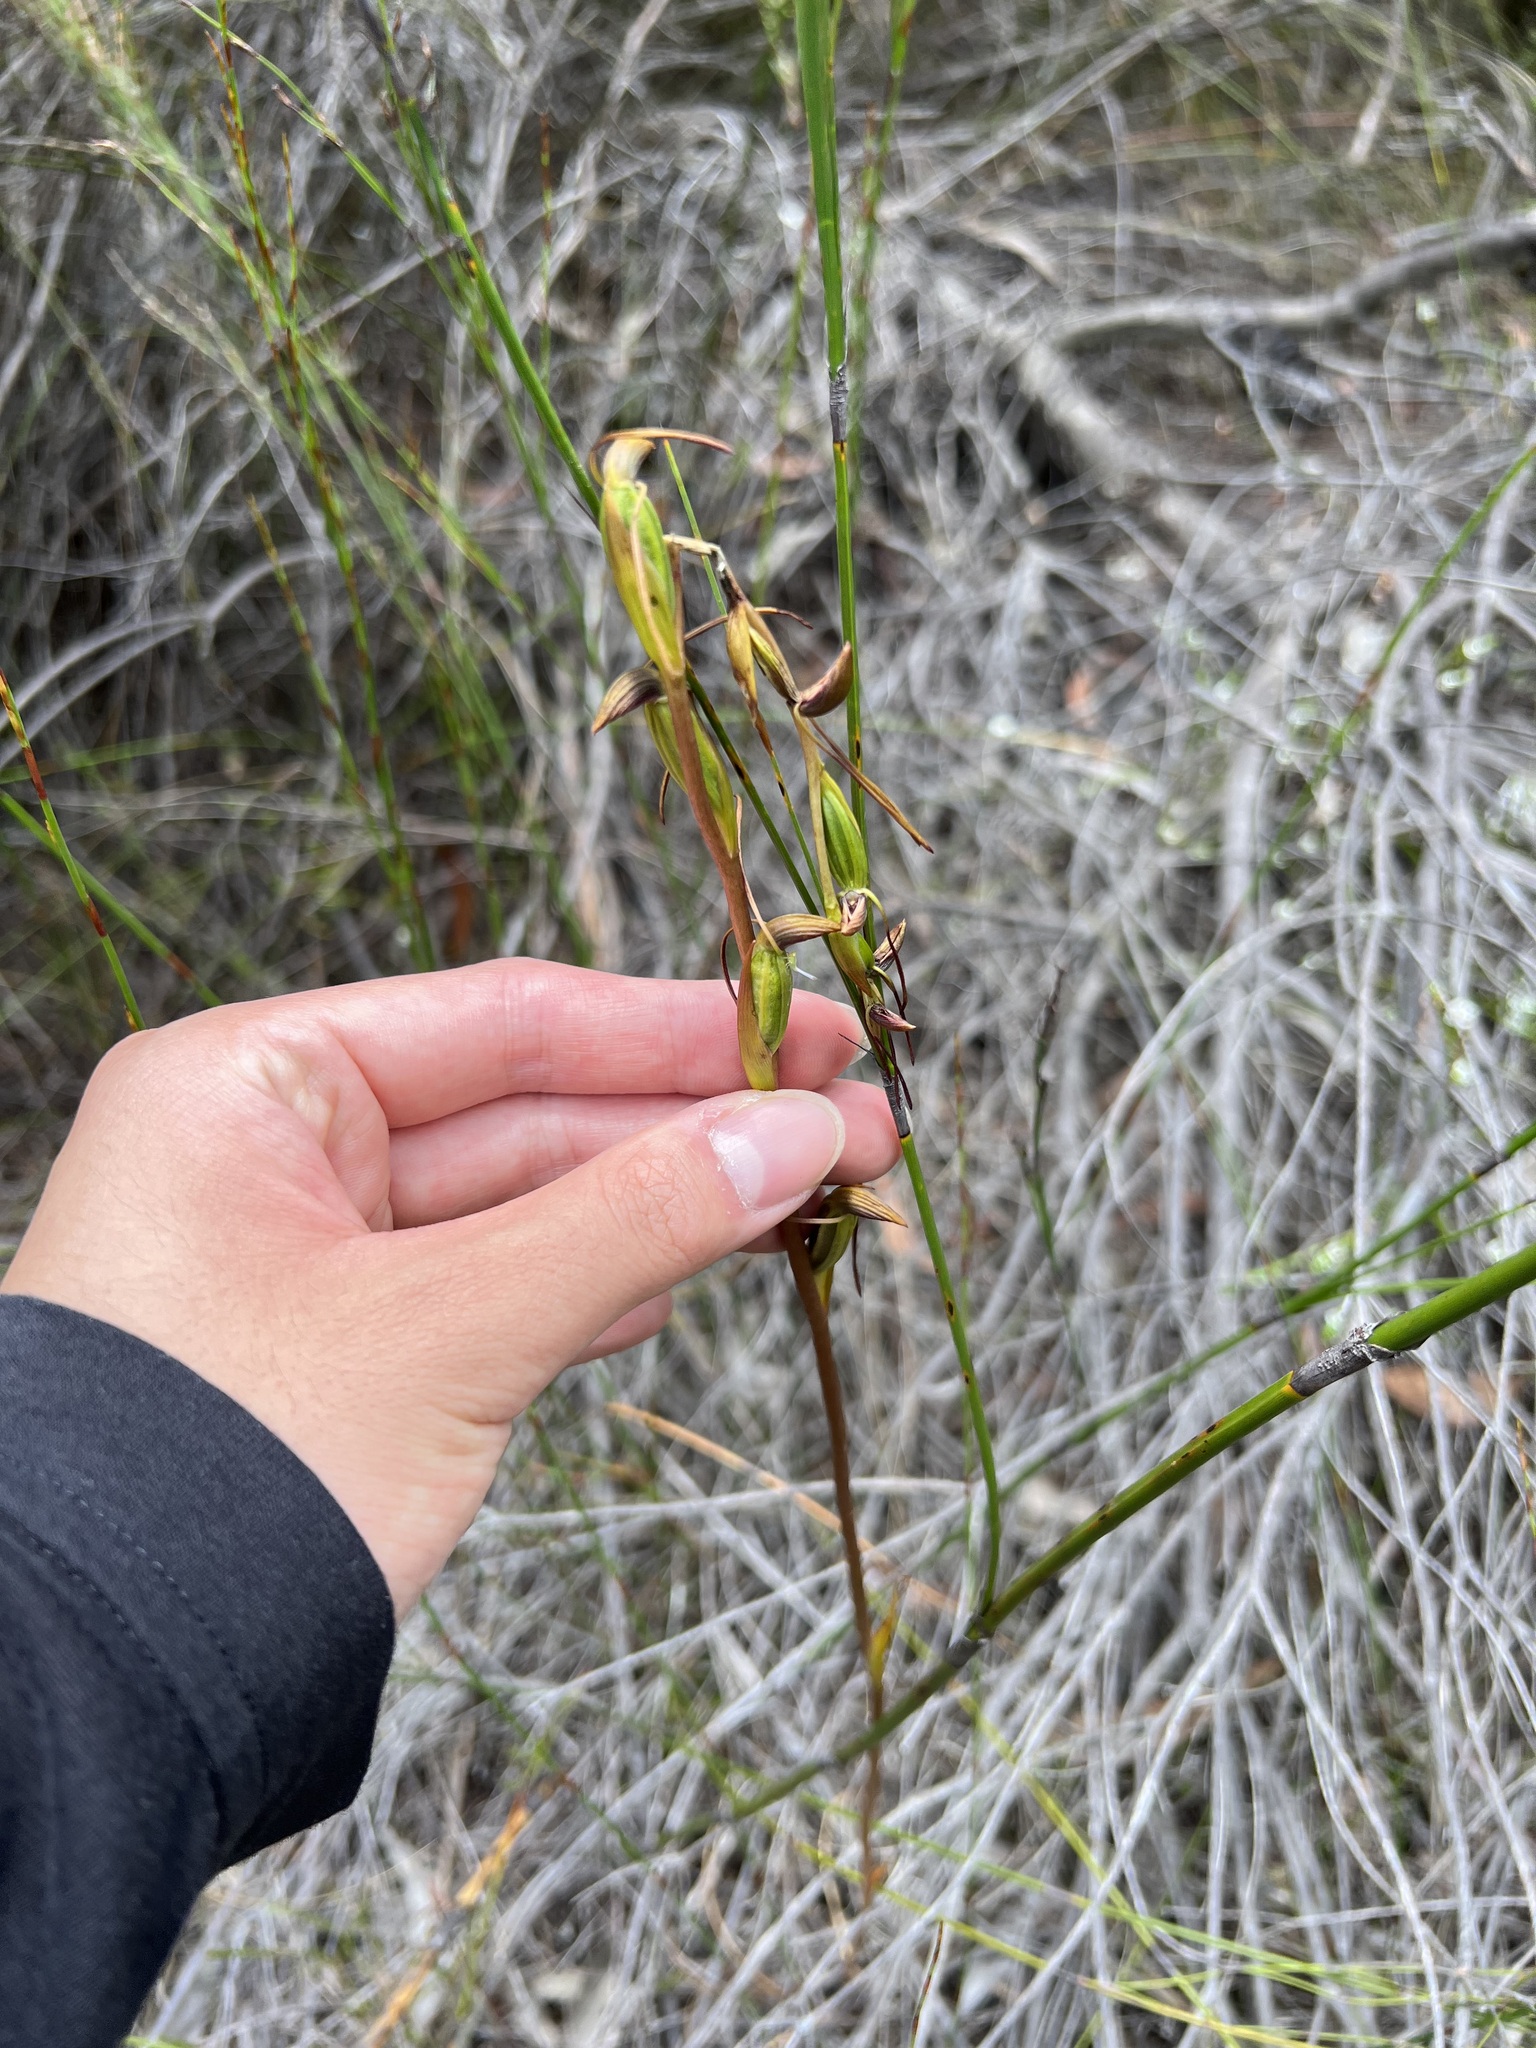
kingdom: Plantae
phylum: Tracheophyta
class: Liliopsida
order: Asparagales
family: Orchidaceae
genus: Orthoceras
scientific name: Orthoceras strictum
